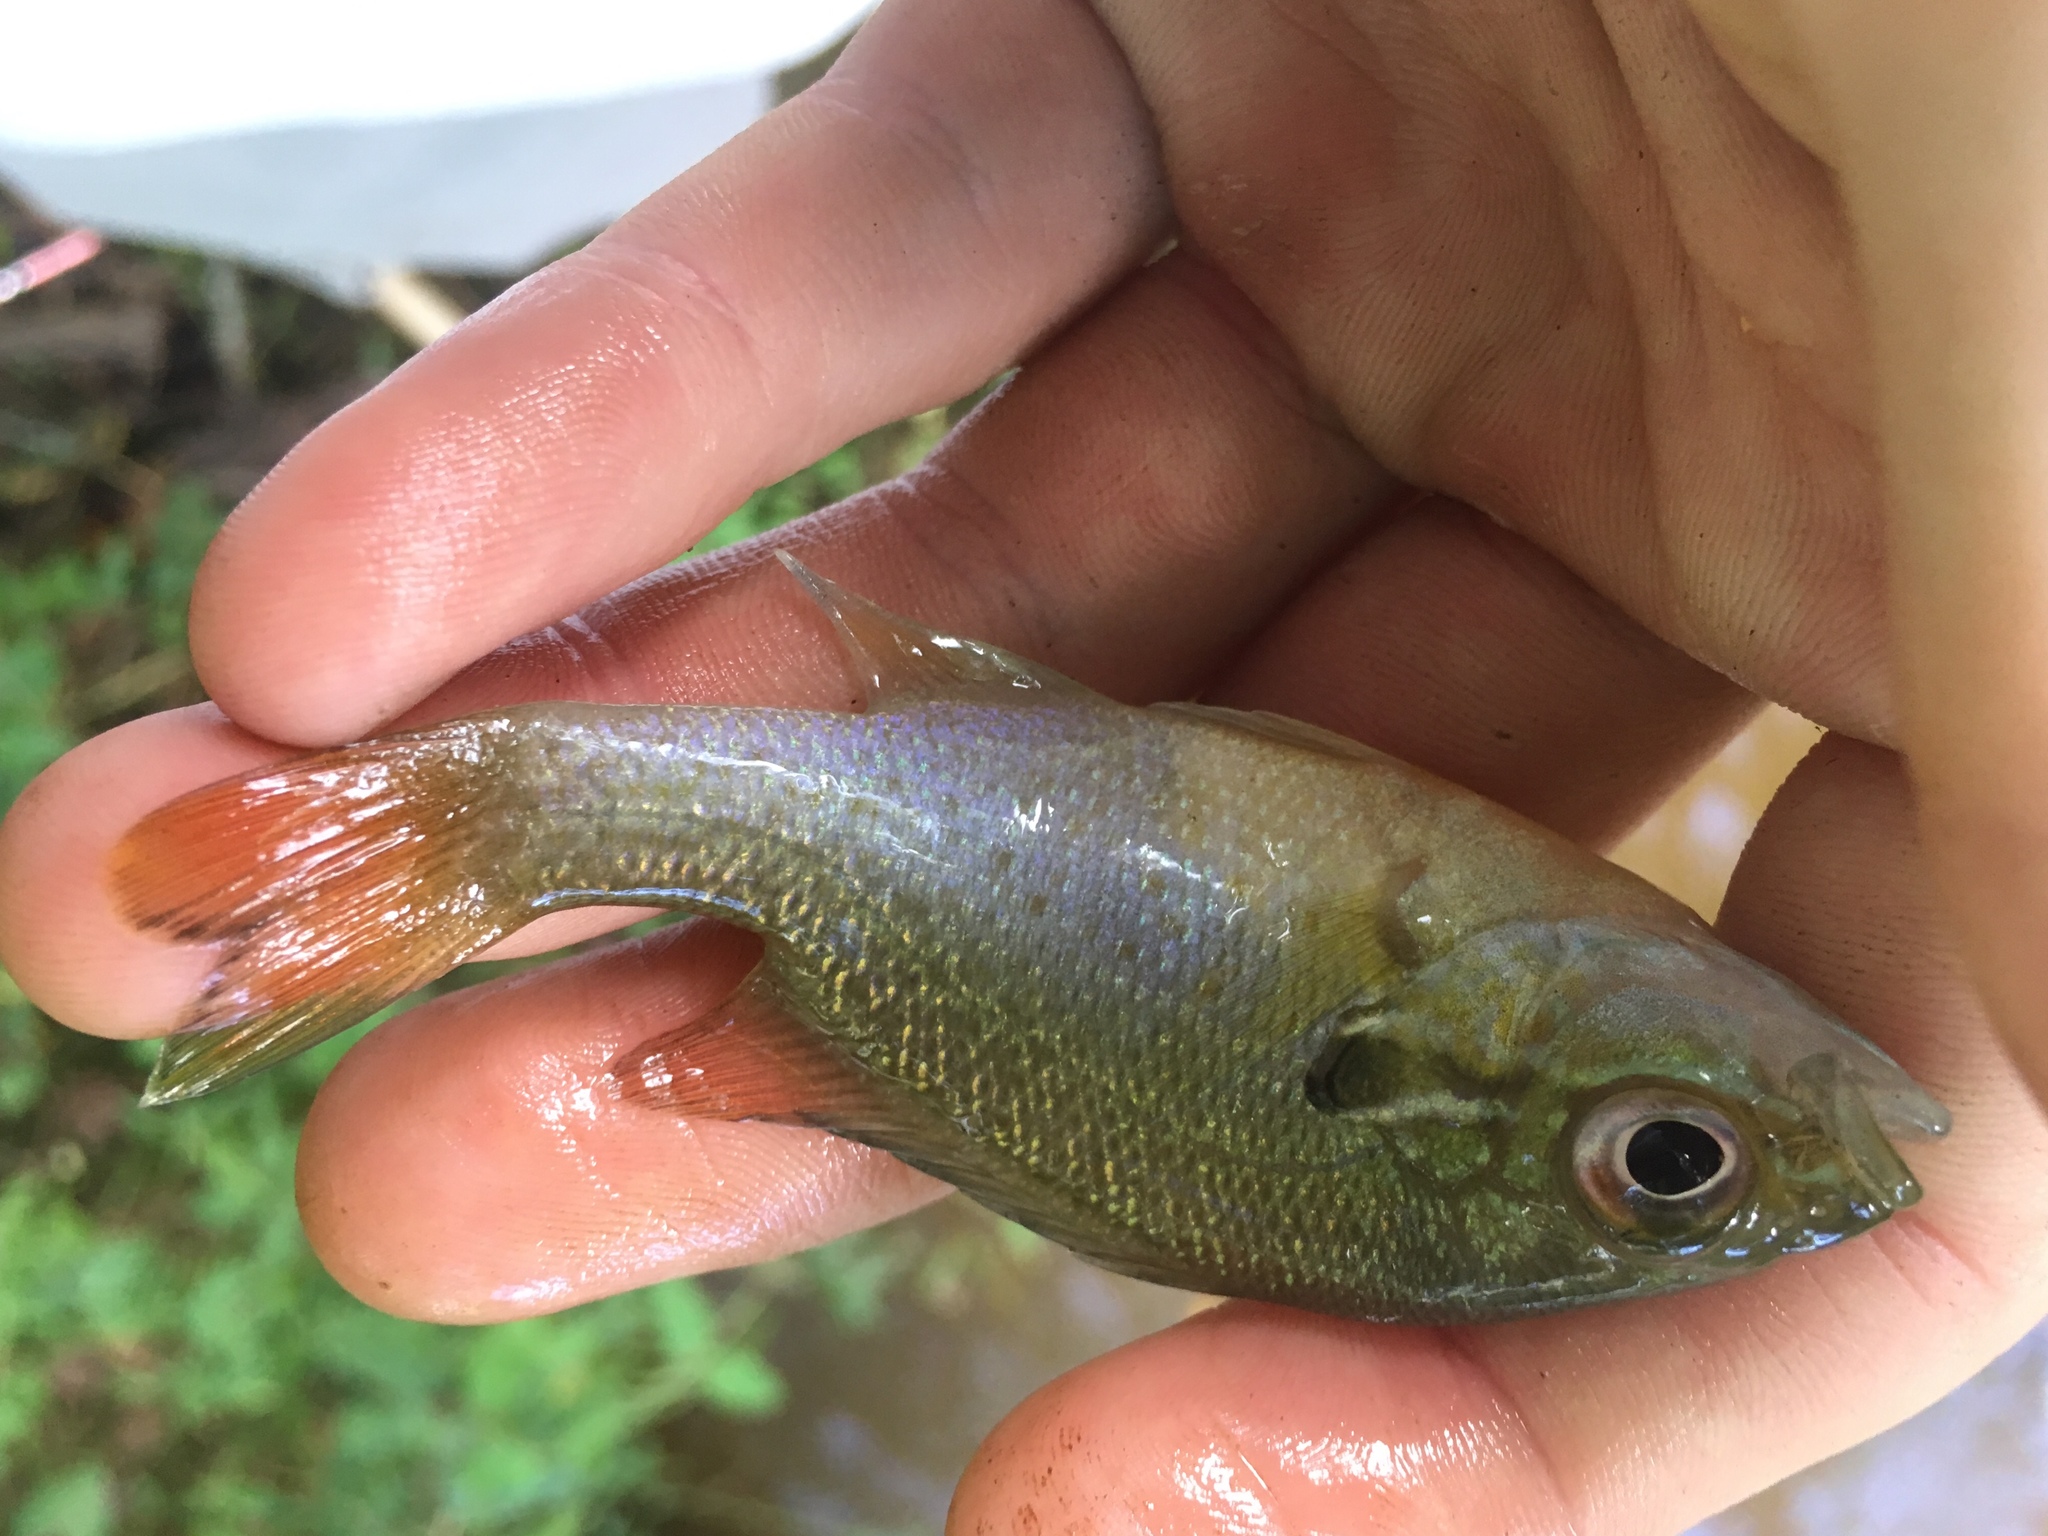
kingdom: Animalia
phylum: Chordata
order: Perciformes
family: Centrarchidae
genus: Lepomis
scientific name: Lepomis auritus
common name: Redbreast sunfish
